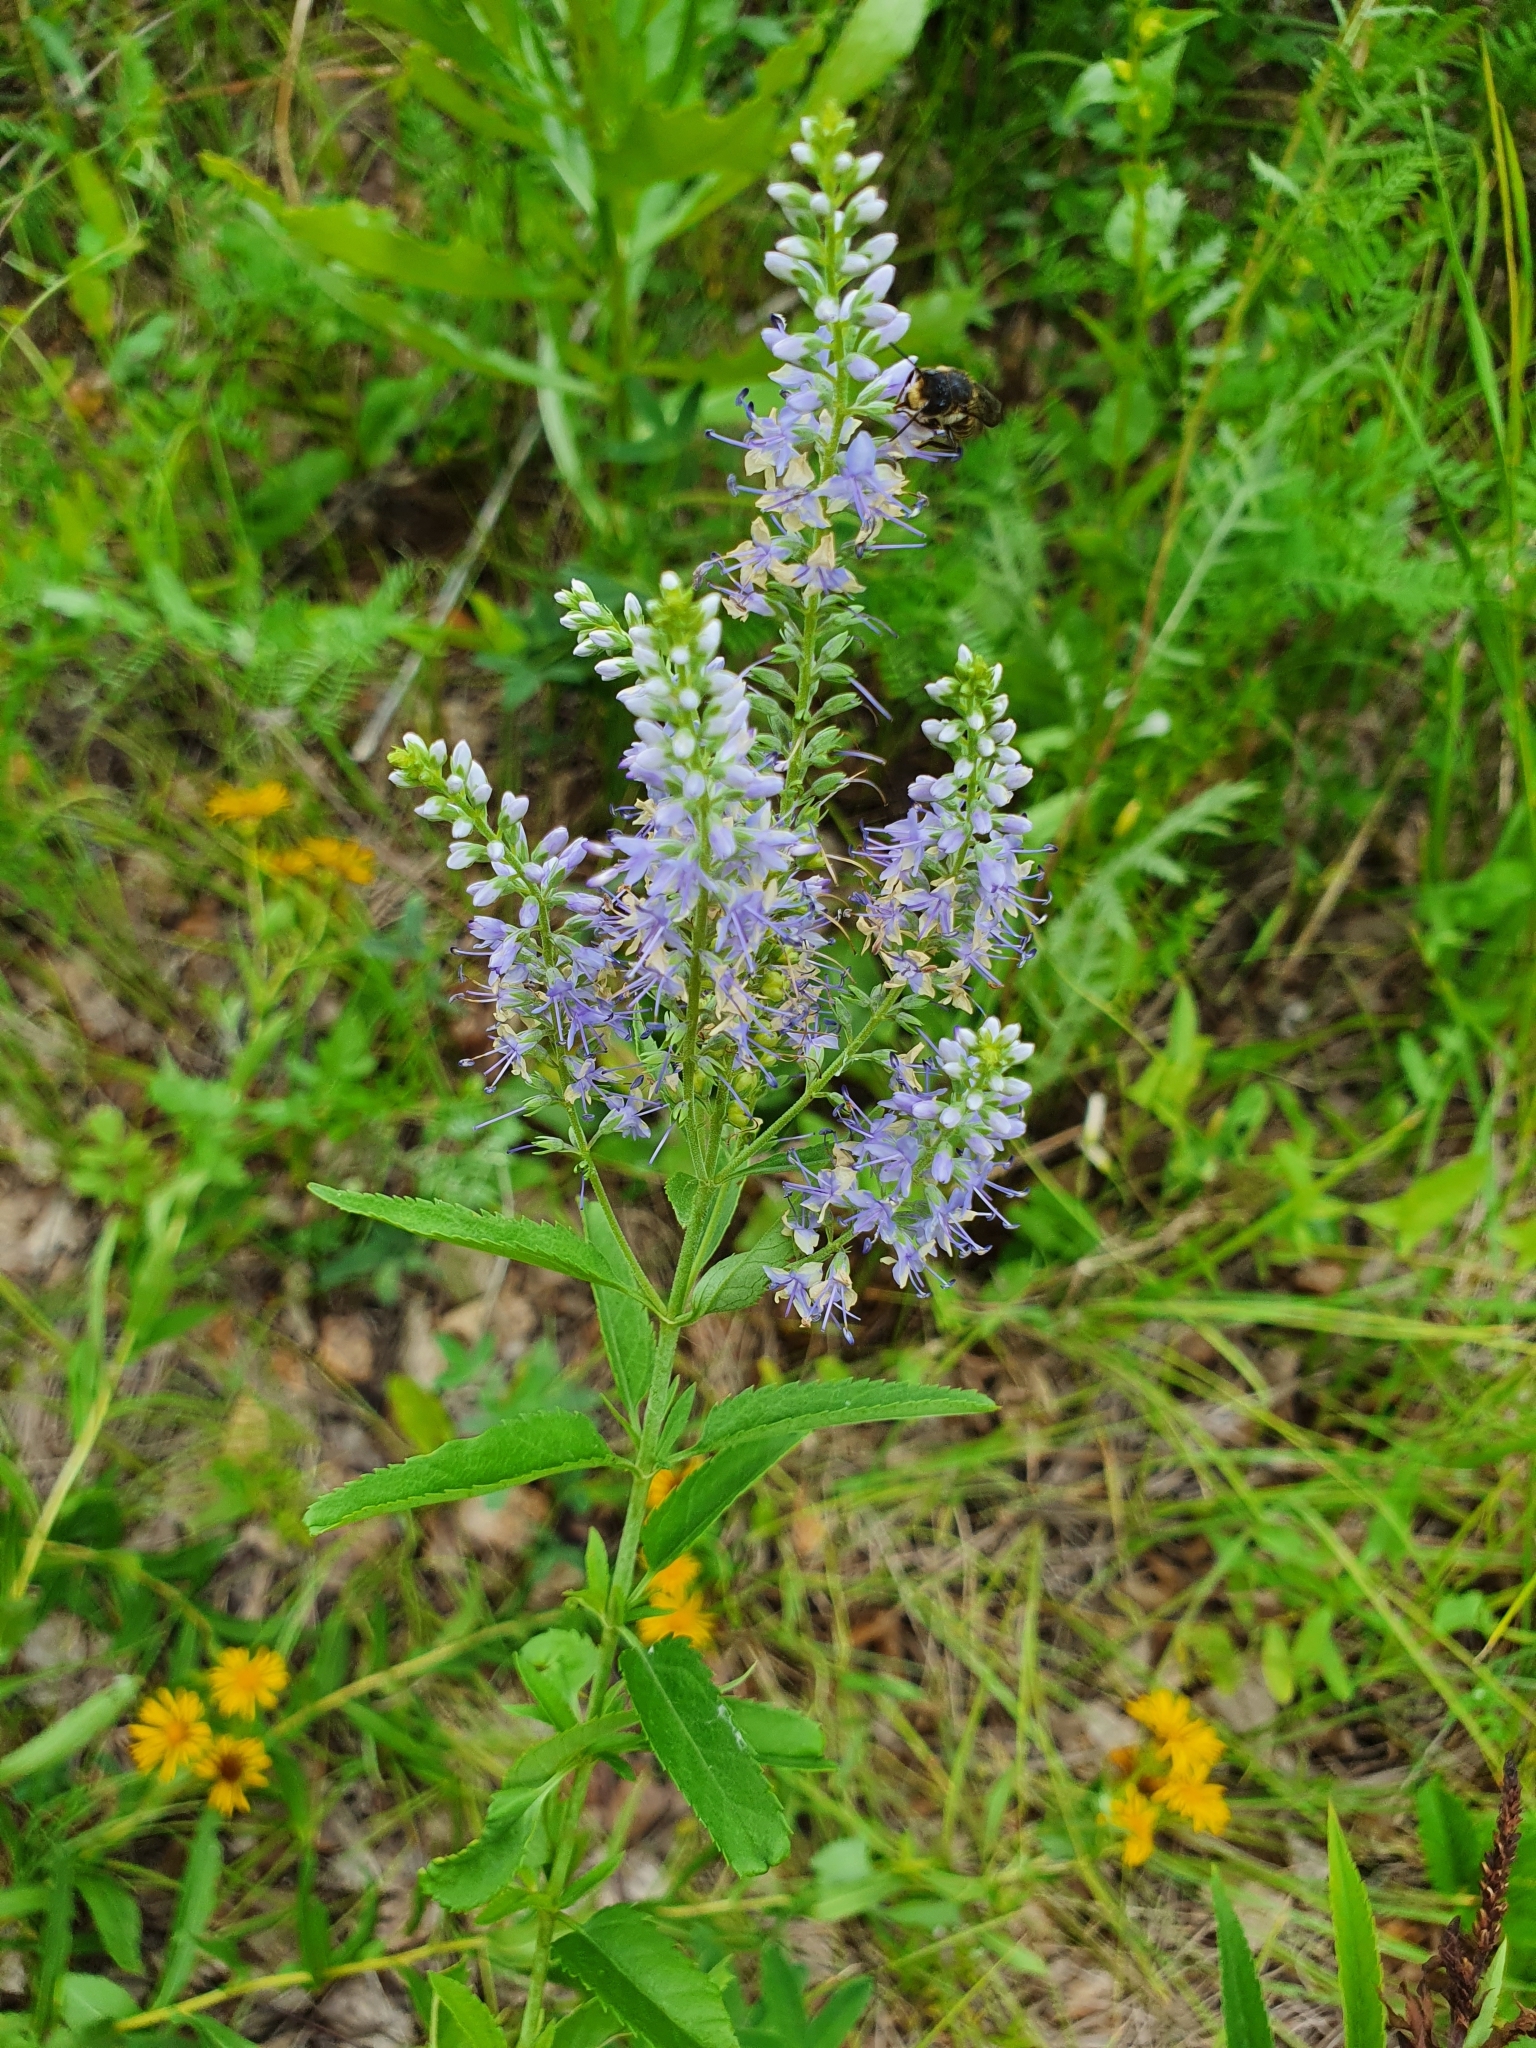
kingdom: Plantae
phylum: Tracheophyta
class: Magnoliopsida
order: Lamiales
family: Plantaginaceae
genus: Veronica
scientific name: Veronica longifolia
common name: Garden speedwell
